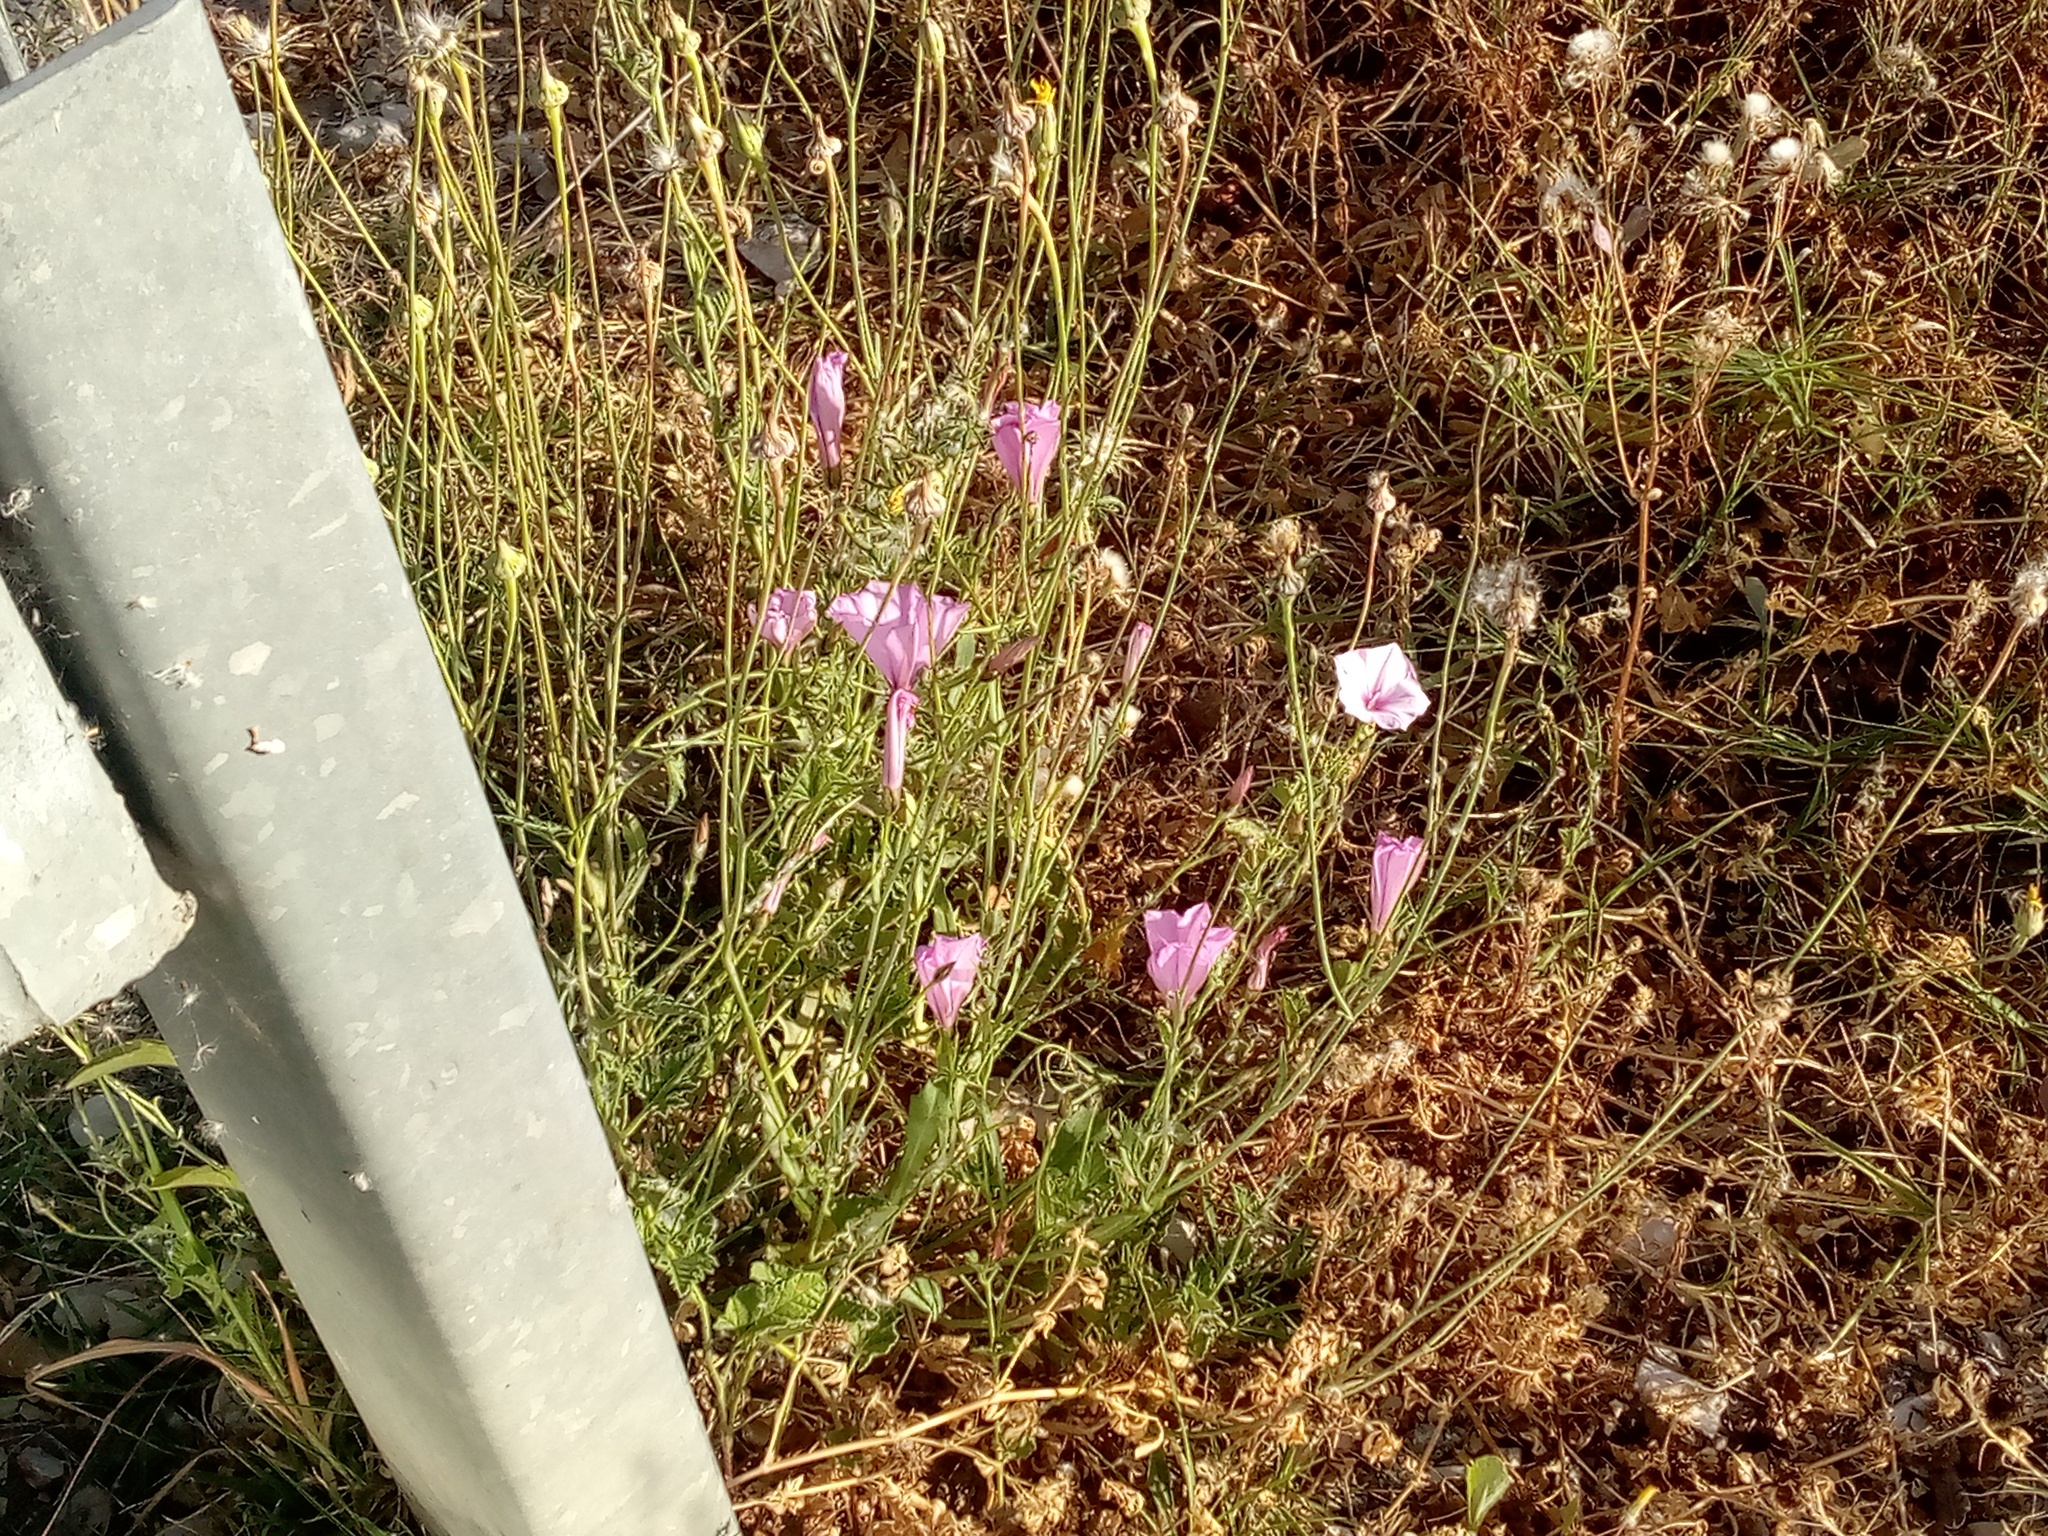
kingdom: Plantae
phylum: Tracheophyta
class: Magnoliopsida
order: Solanales
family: Convolvulaceae
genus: Convolvulus
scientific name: Convolvulus althaeoides
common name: Mallow bindweed
